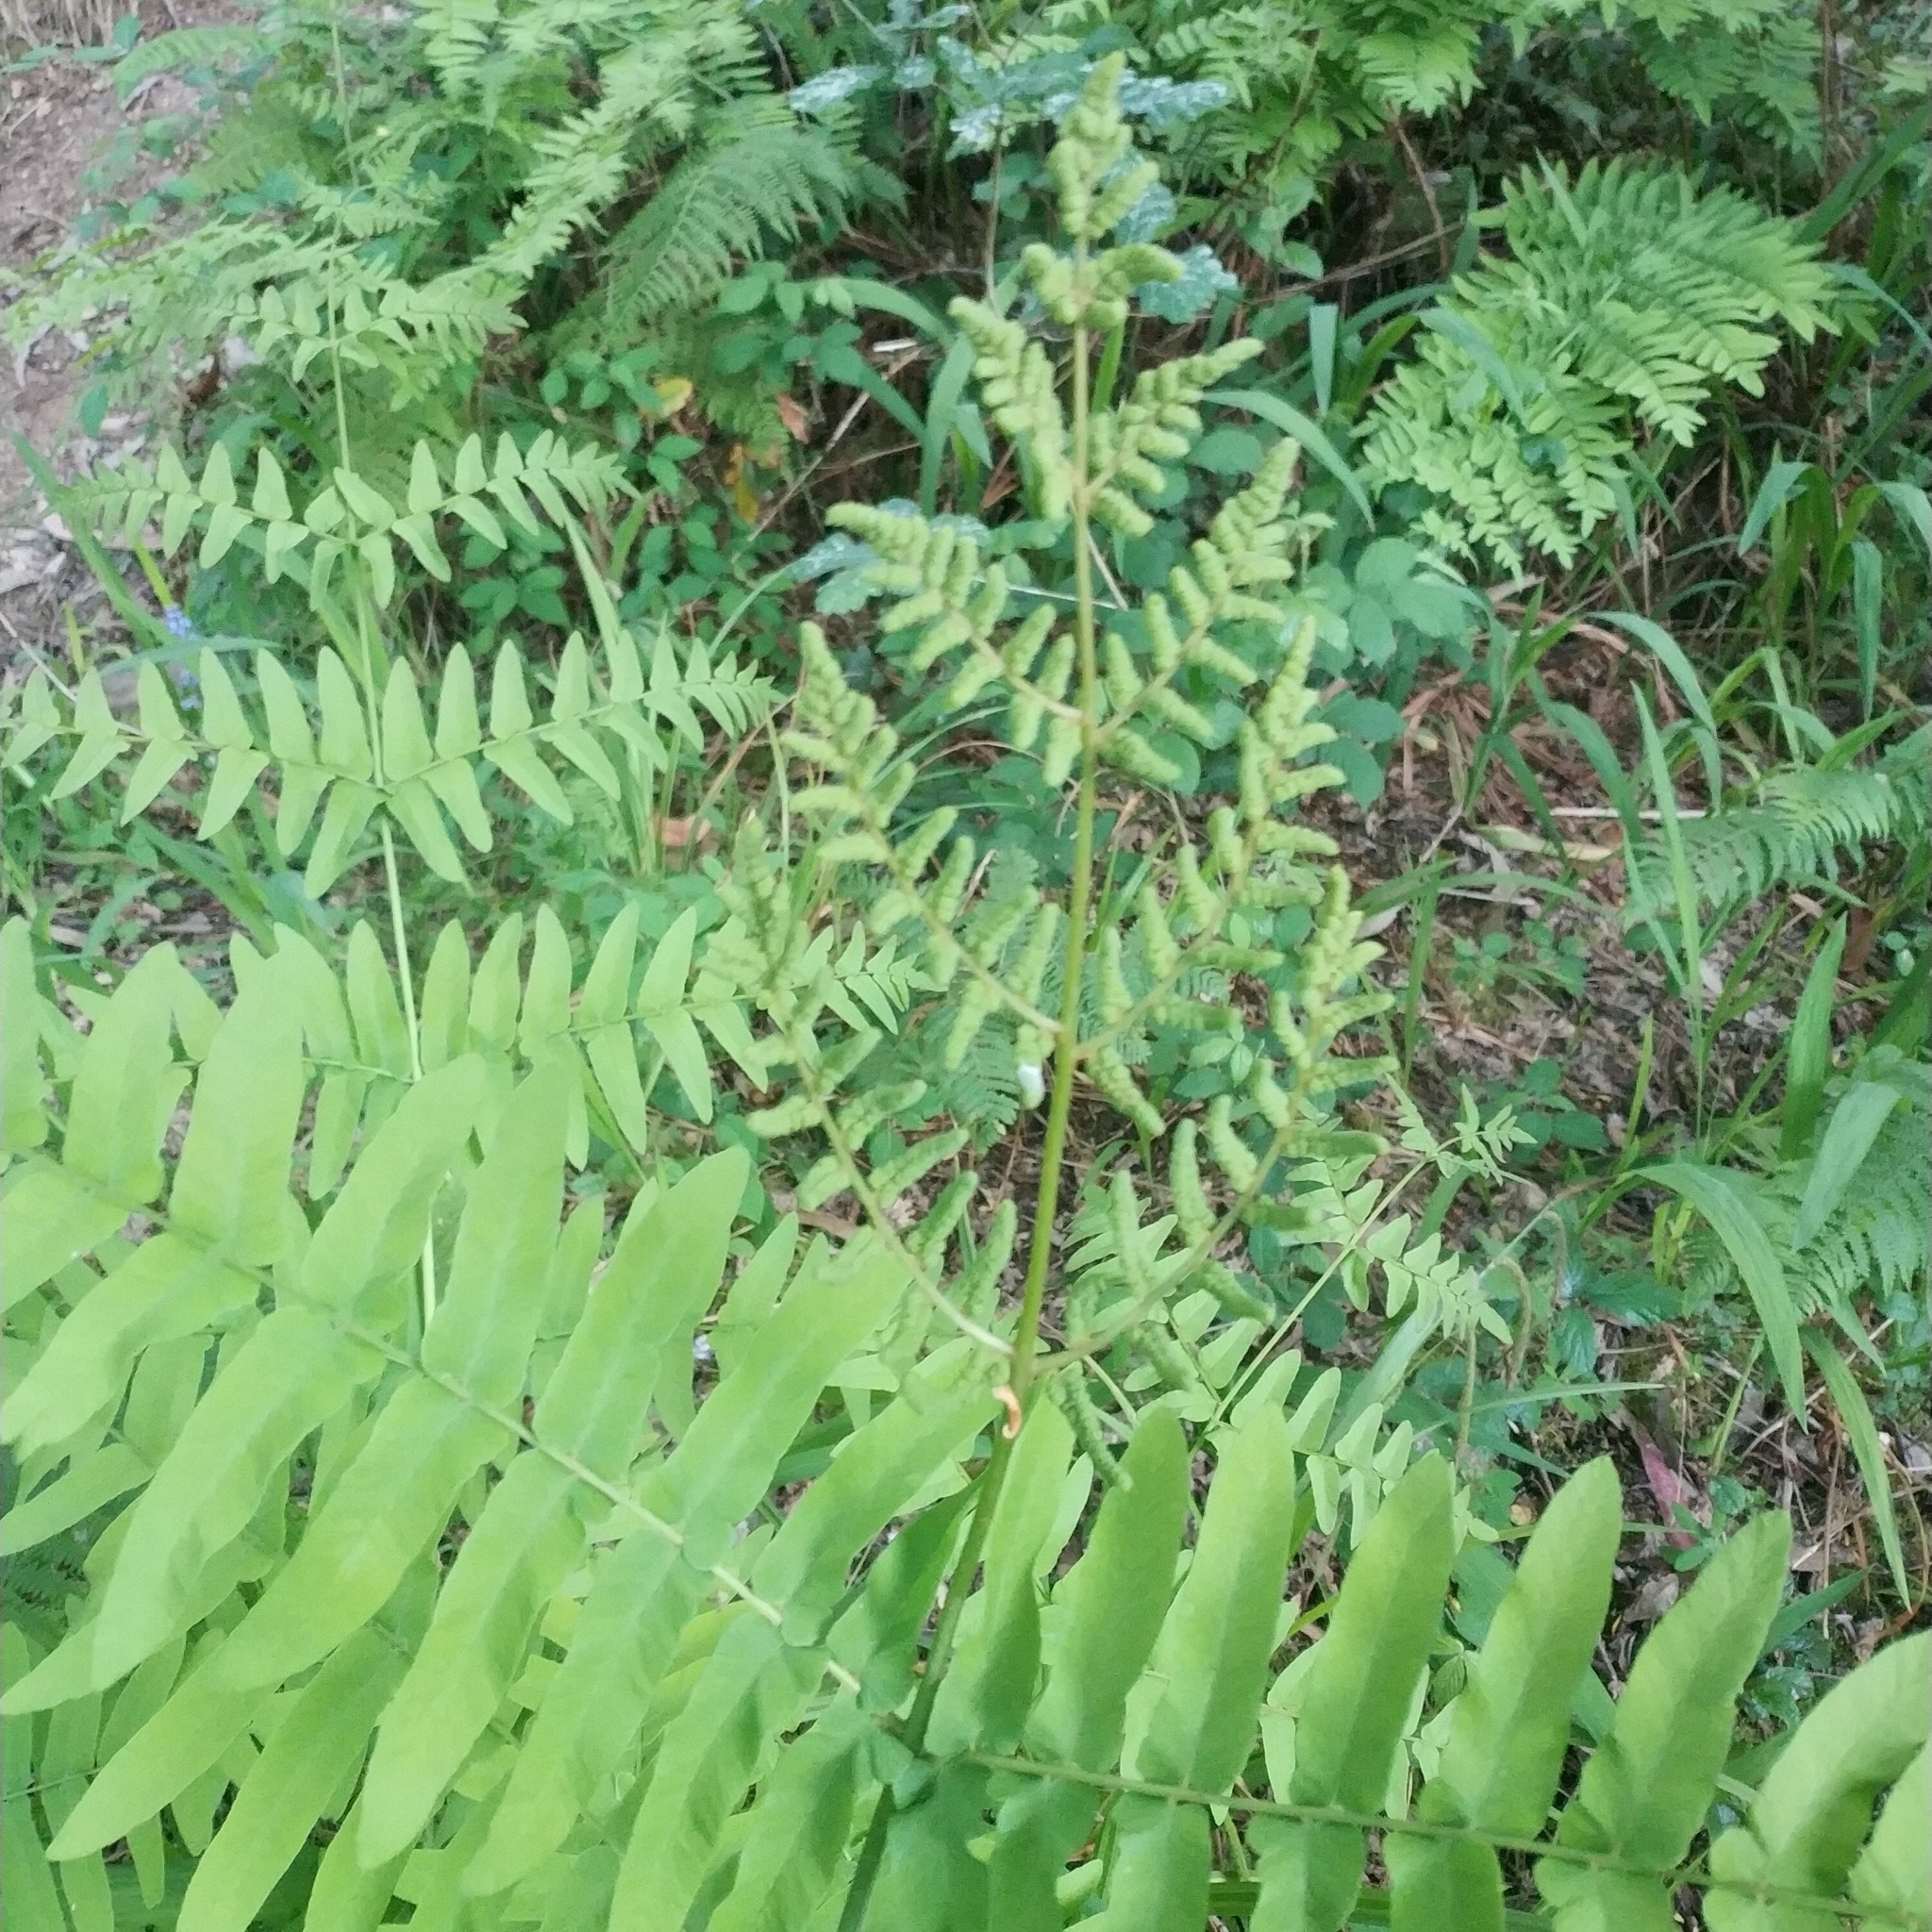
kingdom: Plantae
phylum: Tracheophyta
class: Polypodiopsida
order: Osmundales
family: Osmundaceae
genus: Osmunda
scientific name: Osmunda regalis
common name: Royal fern
